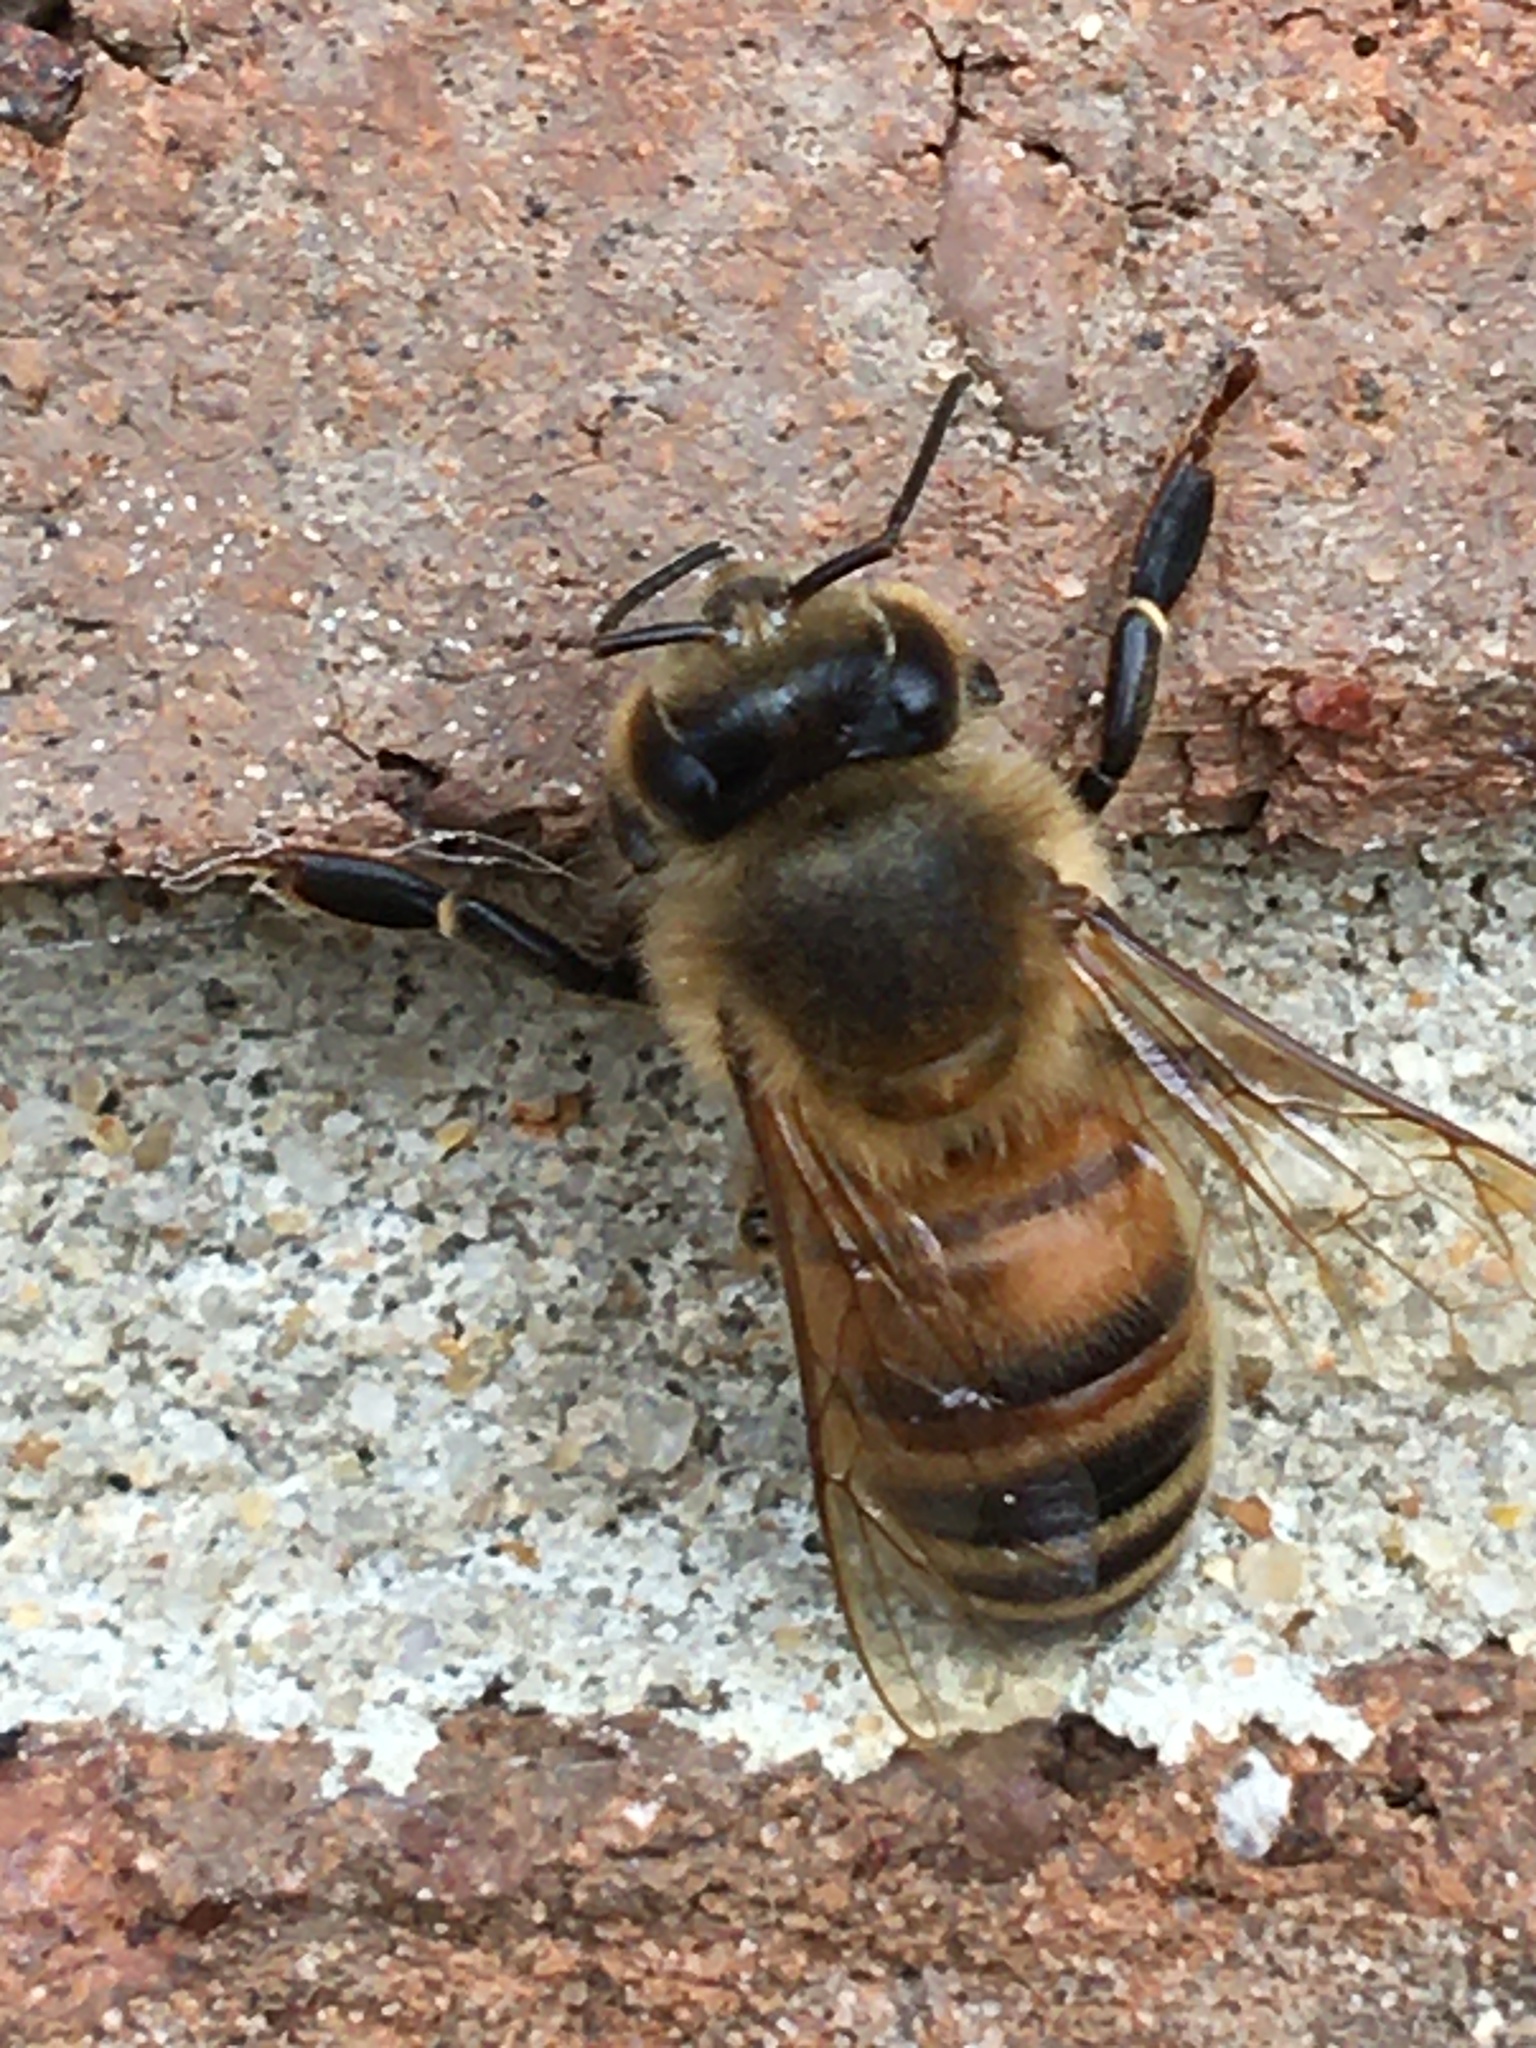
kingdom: Animalia
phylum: Arthropoda
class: Insecta
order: Hymenoptera
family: Apidae
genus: Apis
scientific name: Apis mellifera
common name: Honey bee
